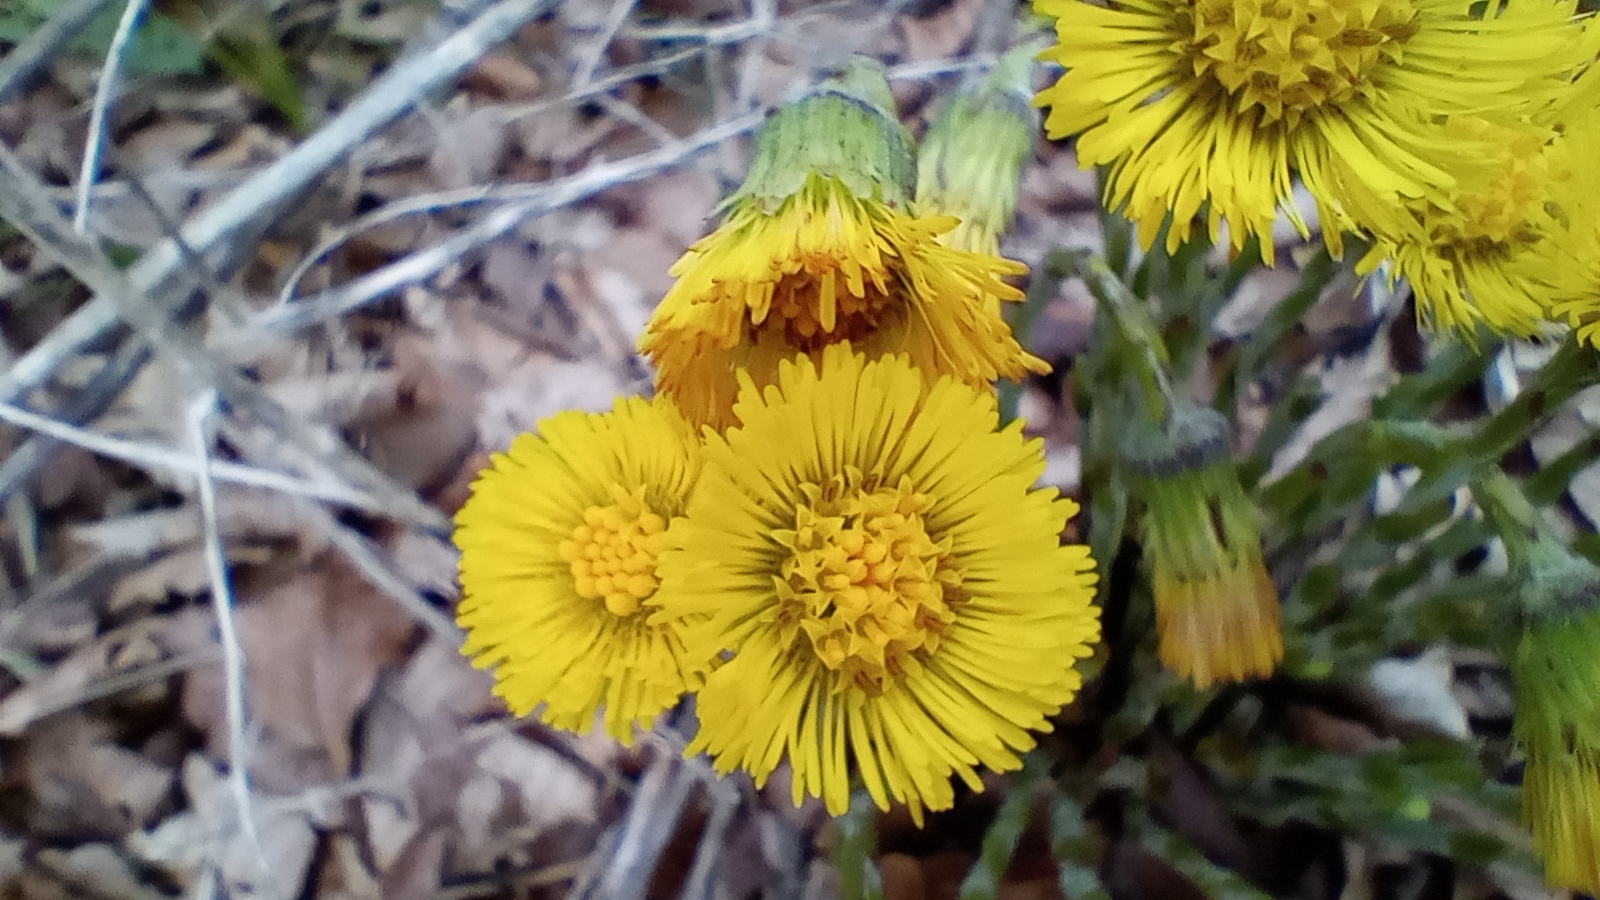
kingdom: Plantae
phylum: Tracheophyta
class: Magnoliopsida
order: Asterales
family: Asteraceae
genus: Tussilago
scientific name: Tussilago farfara
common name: Coltsfoot
